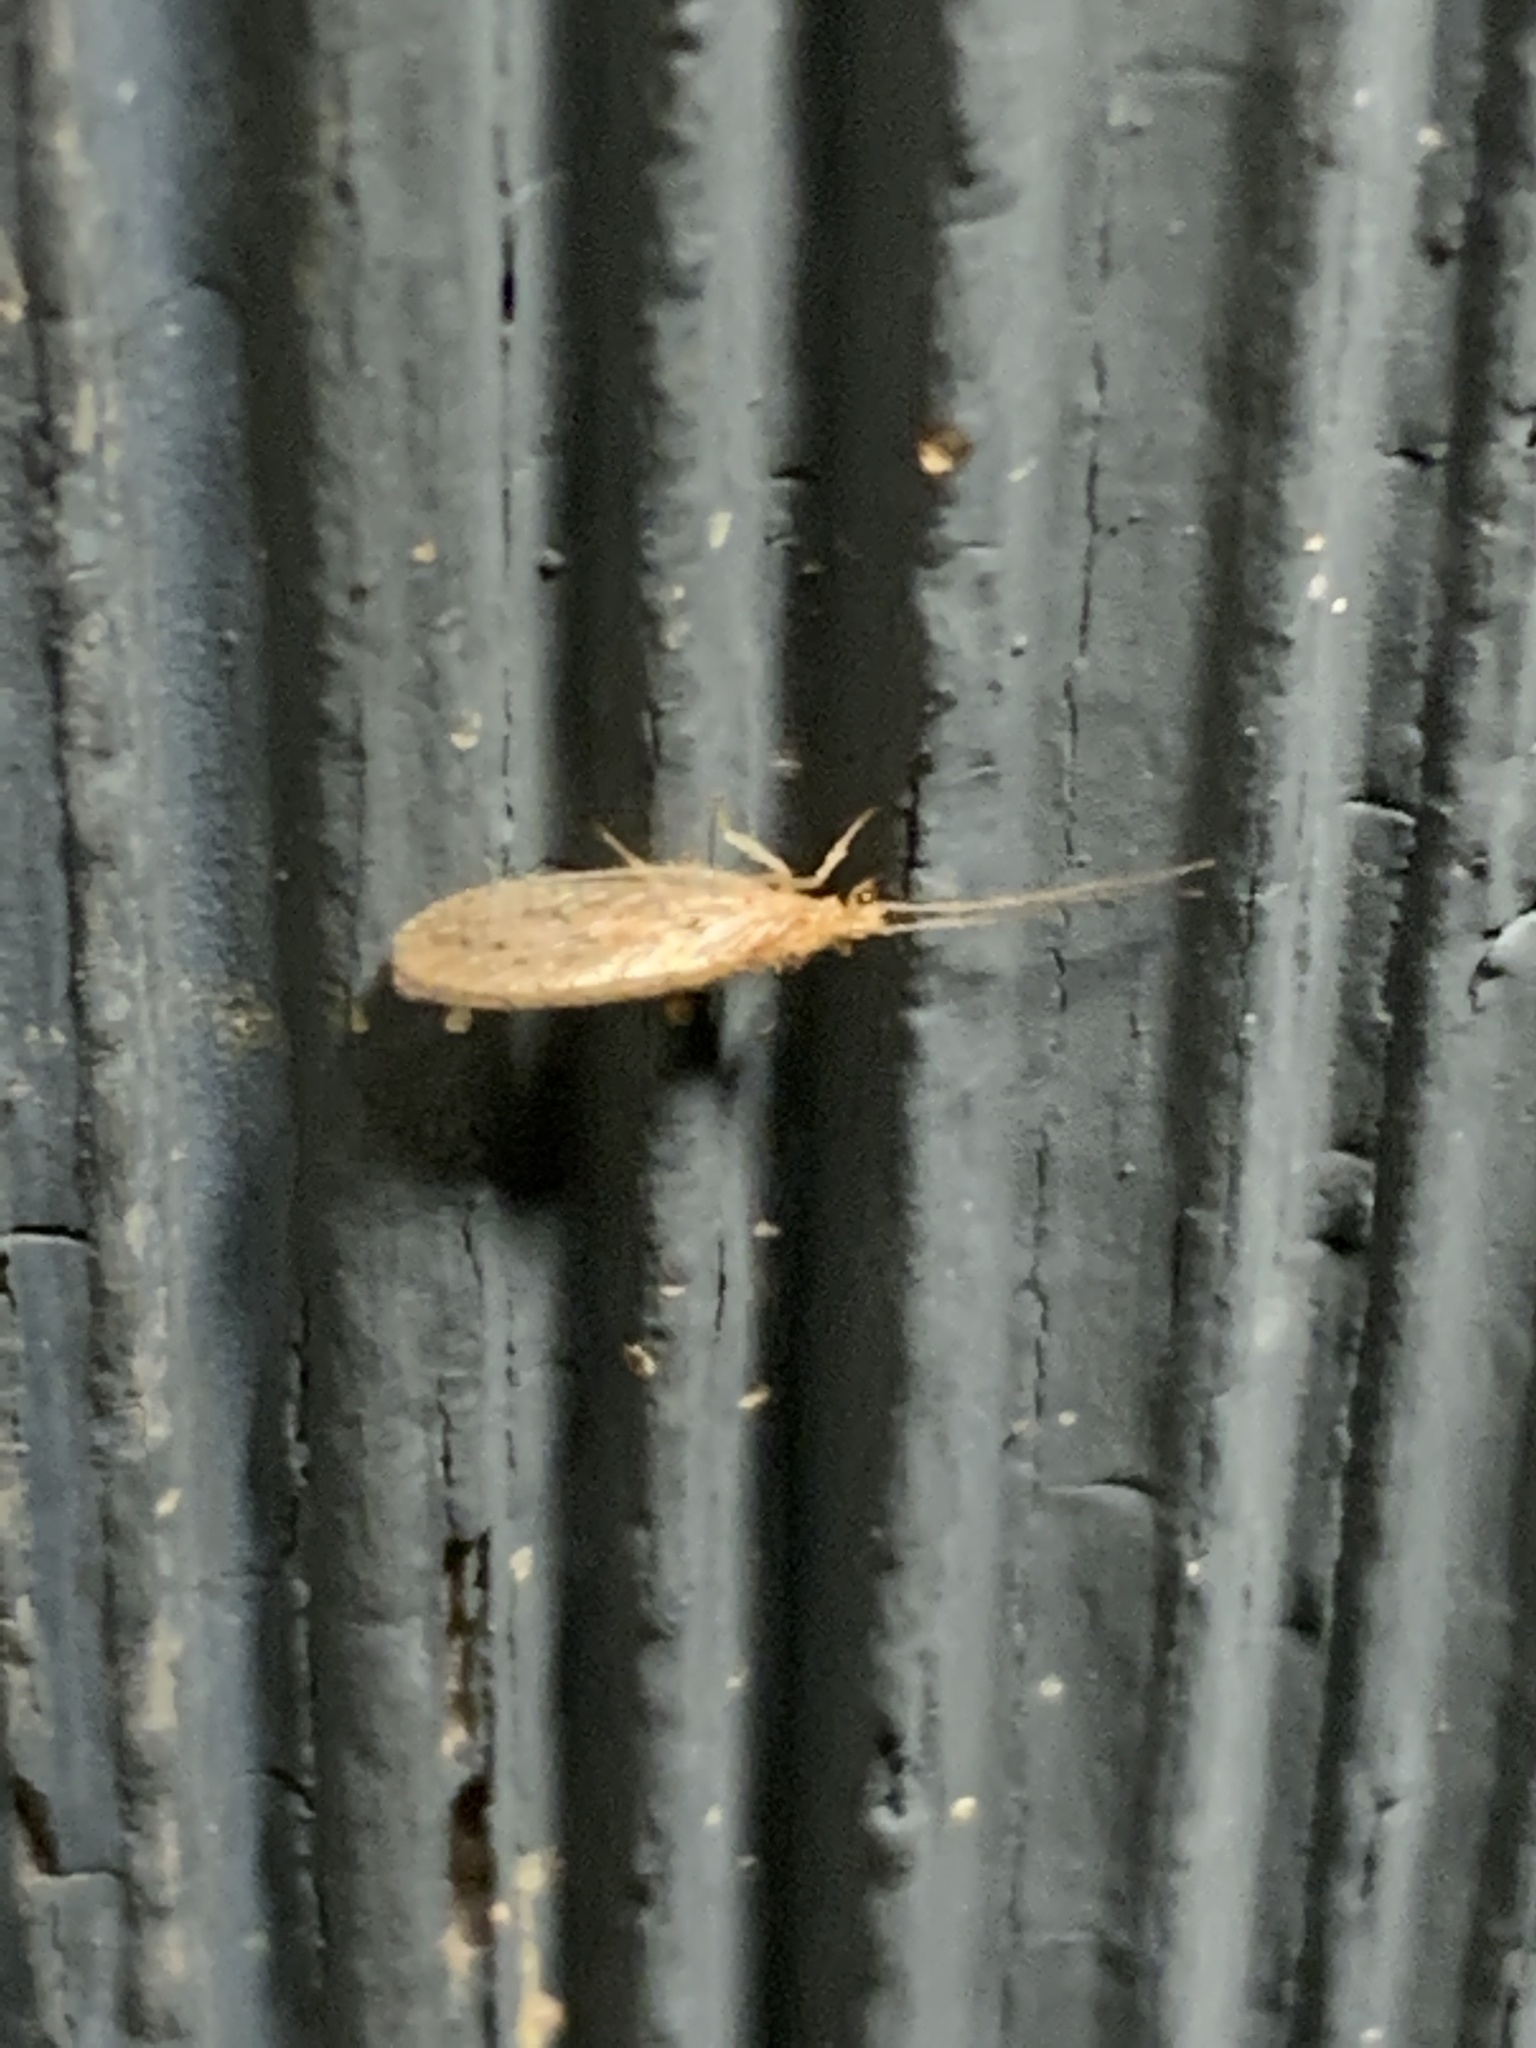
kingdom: Animalia
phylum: Arthropoda
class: Insecta
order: Neuroptera
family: Hemerobiidae
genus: Micromus
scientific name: Micromus subanticus
